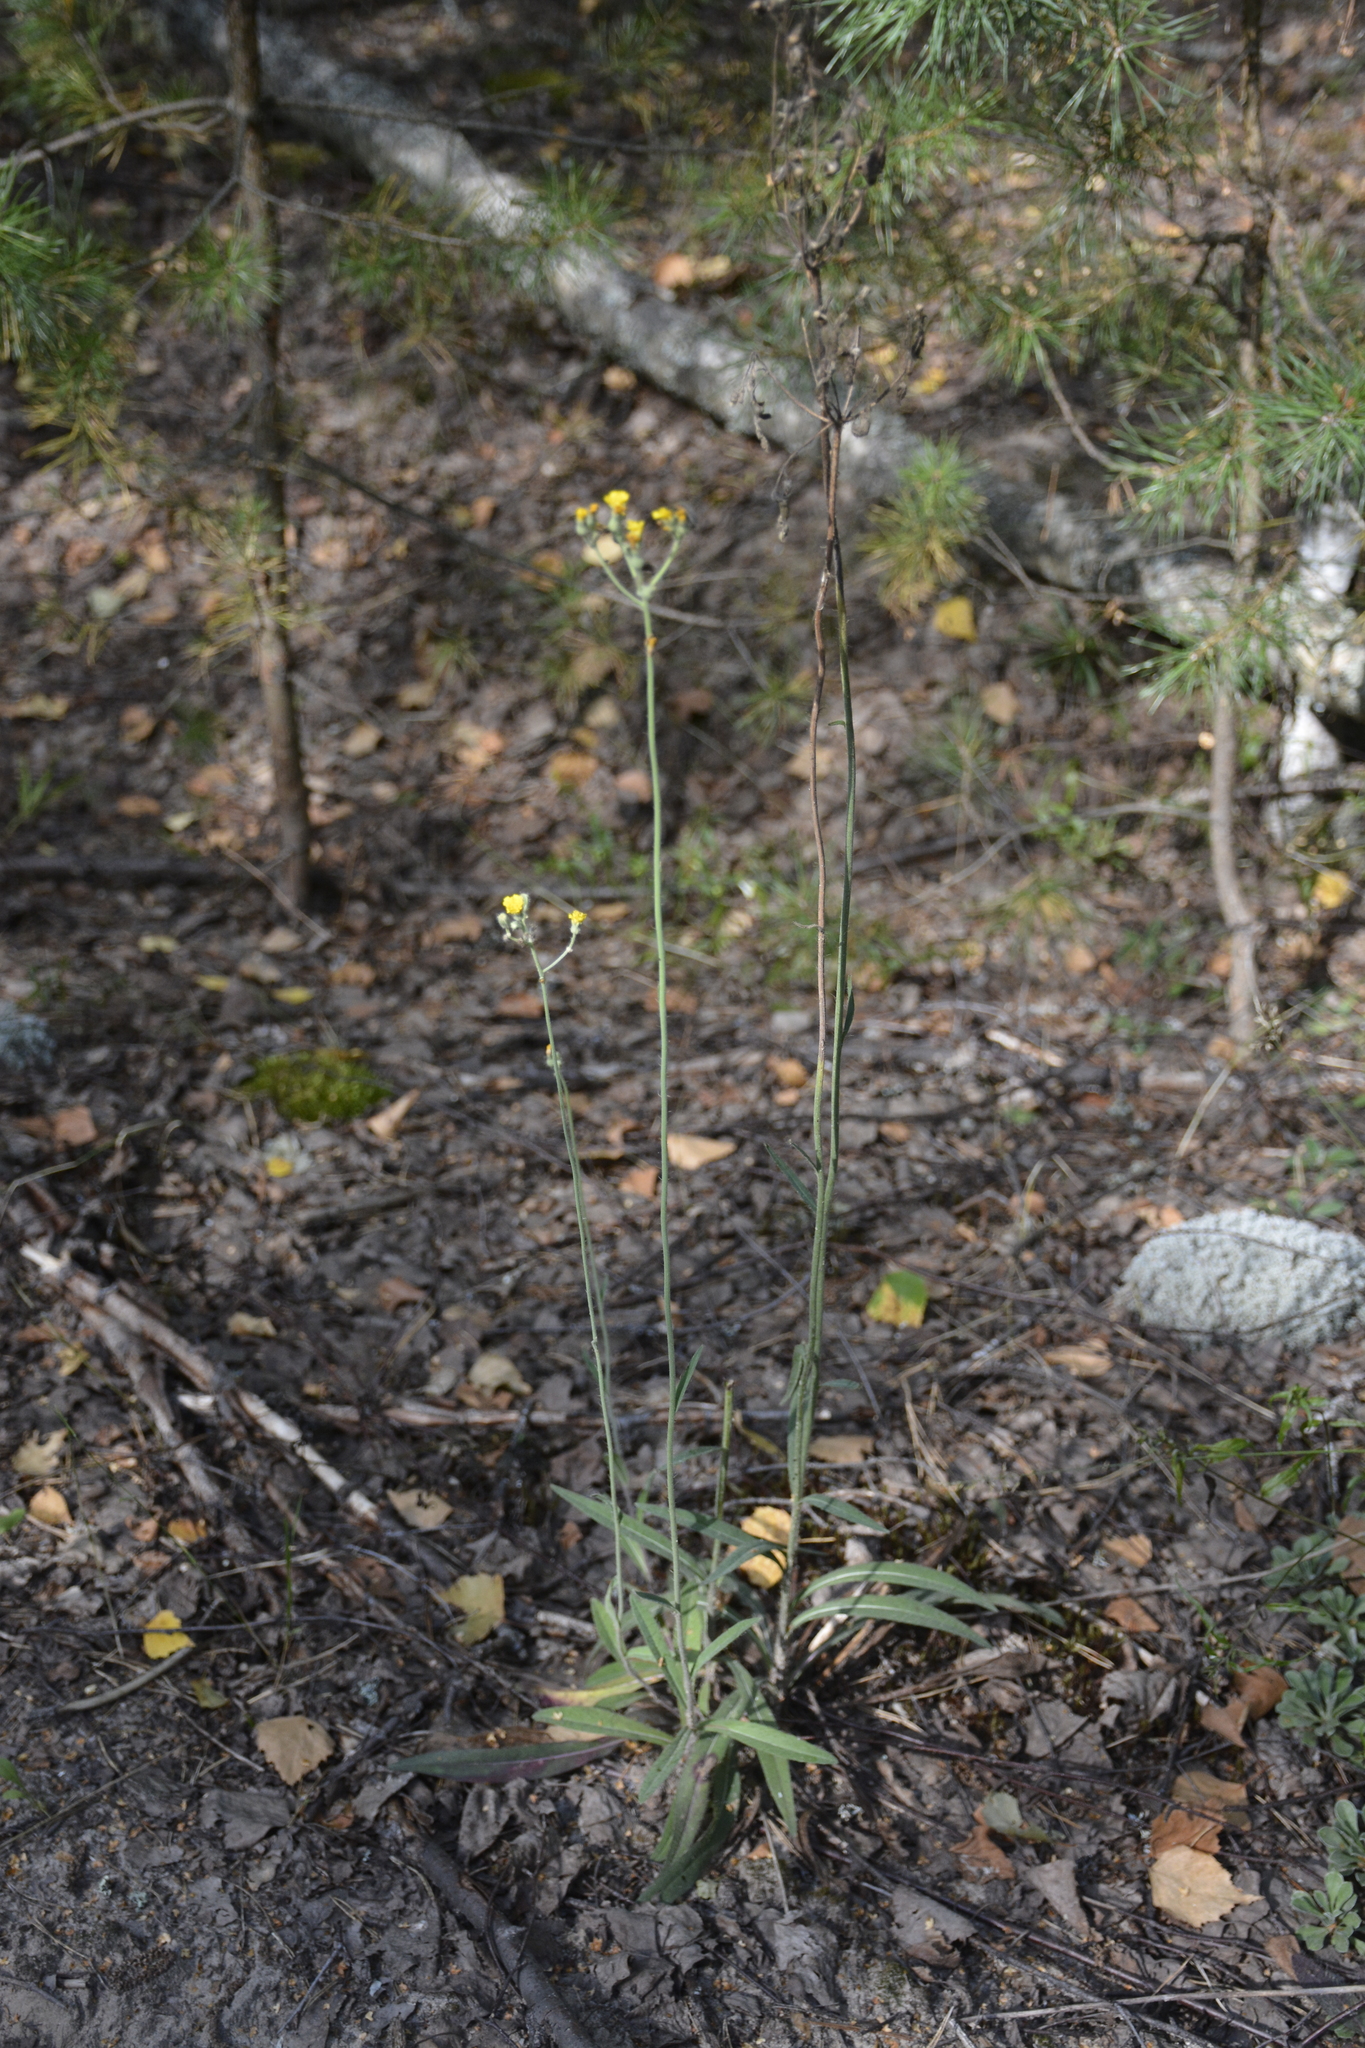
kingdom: Plantae
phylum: Tracheophyta
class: Magnoliopsida
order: Asterales
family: Asteraceae
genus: Pilosella
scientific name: Pilosella echioides
